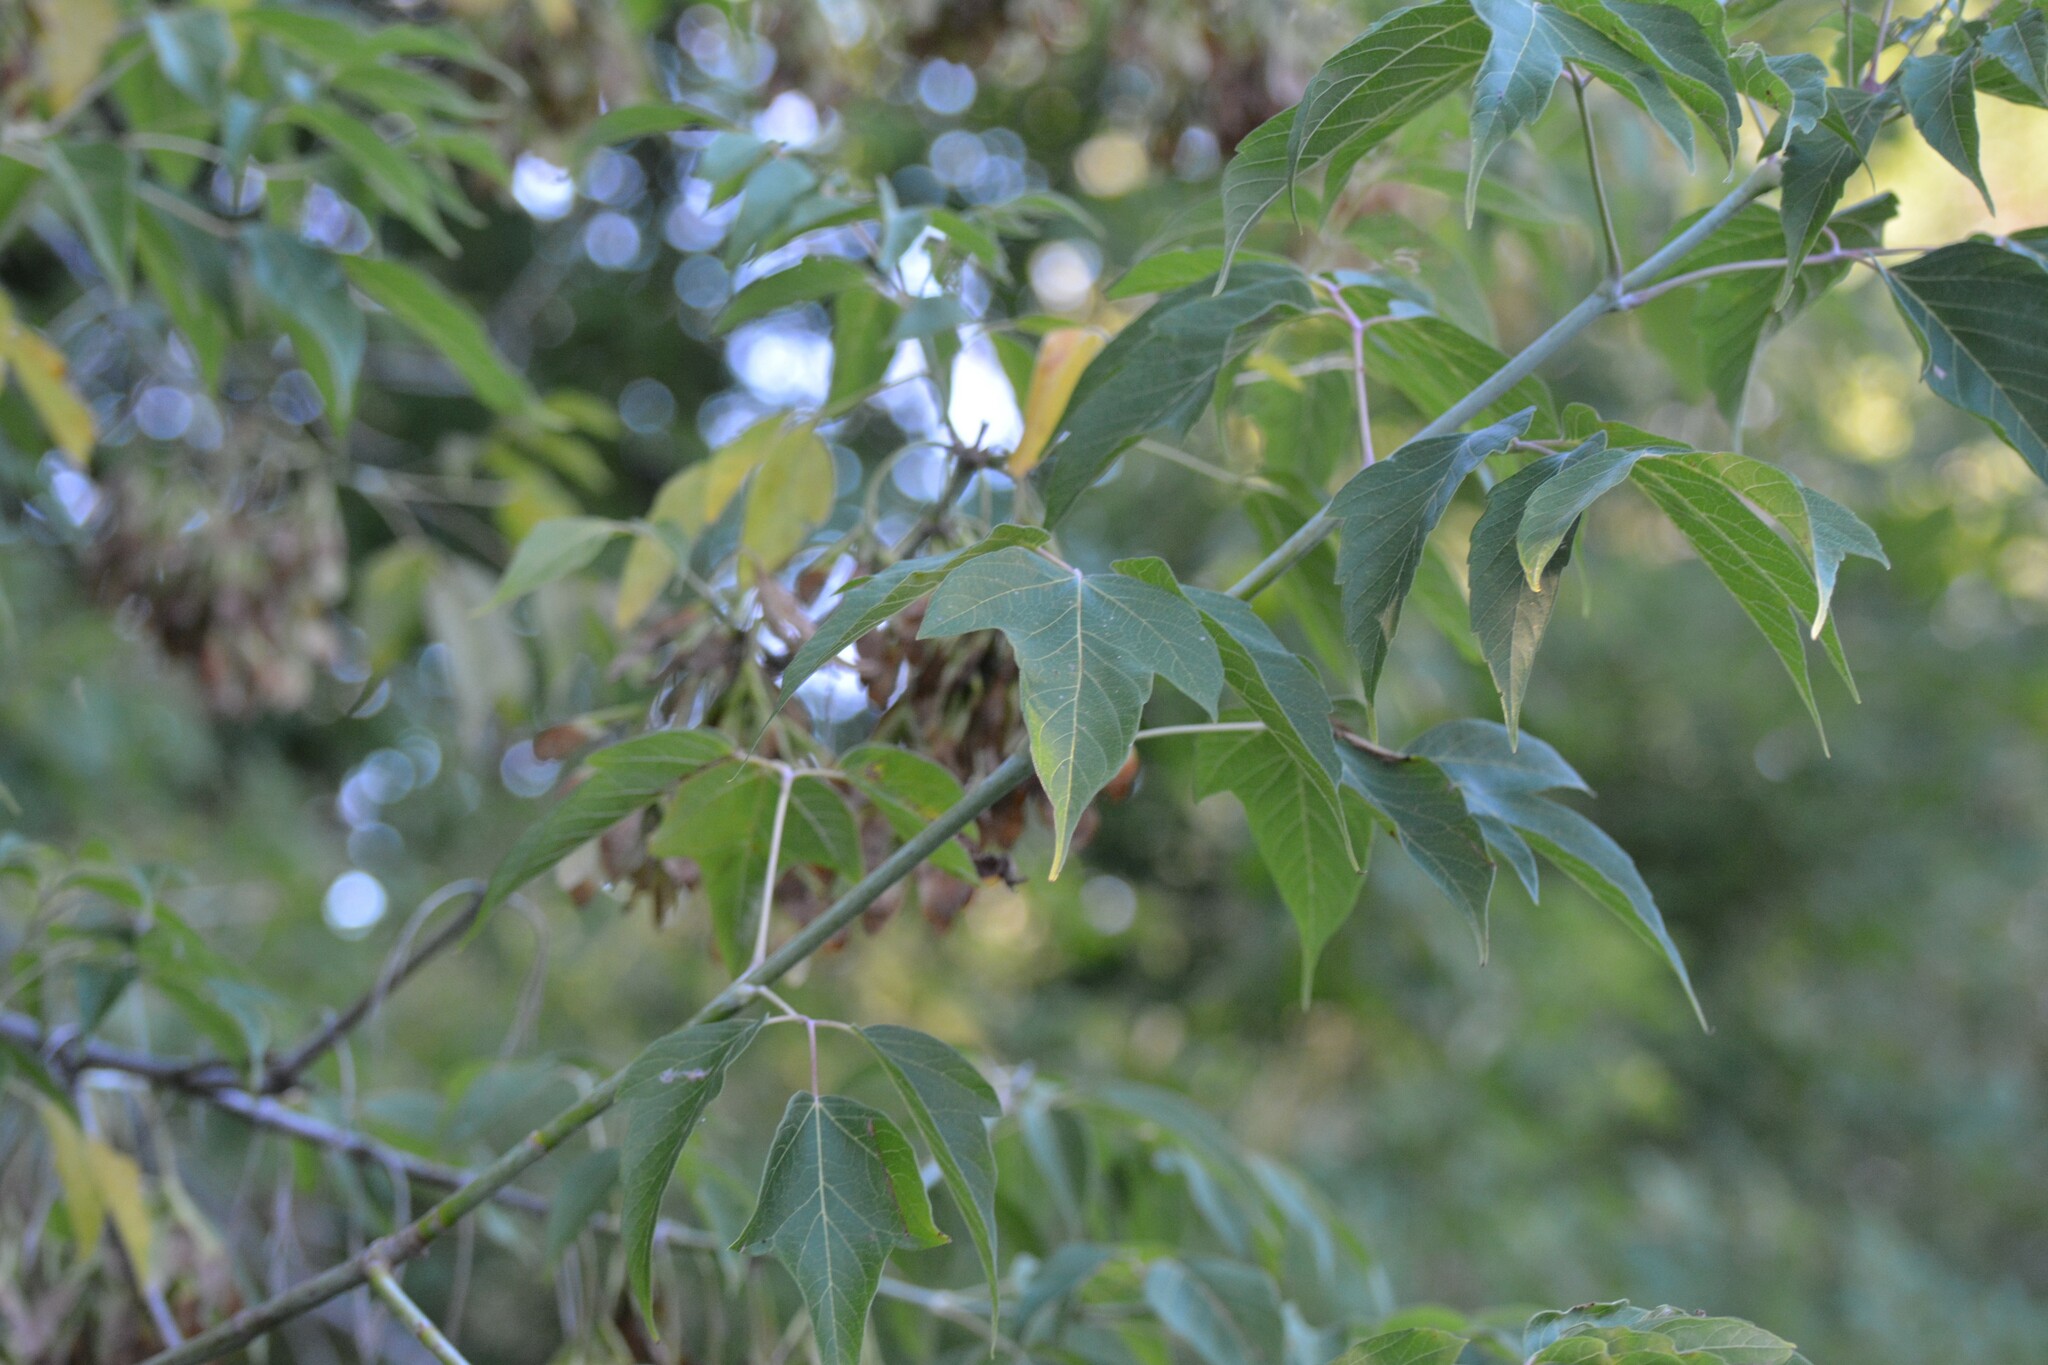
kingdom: Plantae
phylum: Tracheophyta
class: Magnoliopsida
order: Sapindales
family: Sapindaceae
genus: Acer
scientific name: Acer negundo
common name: Ashleaf maple
